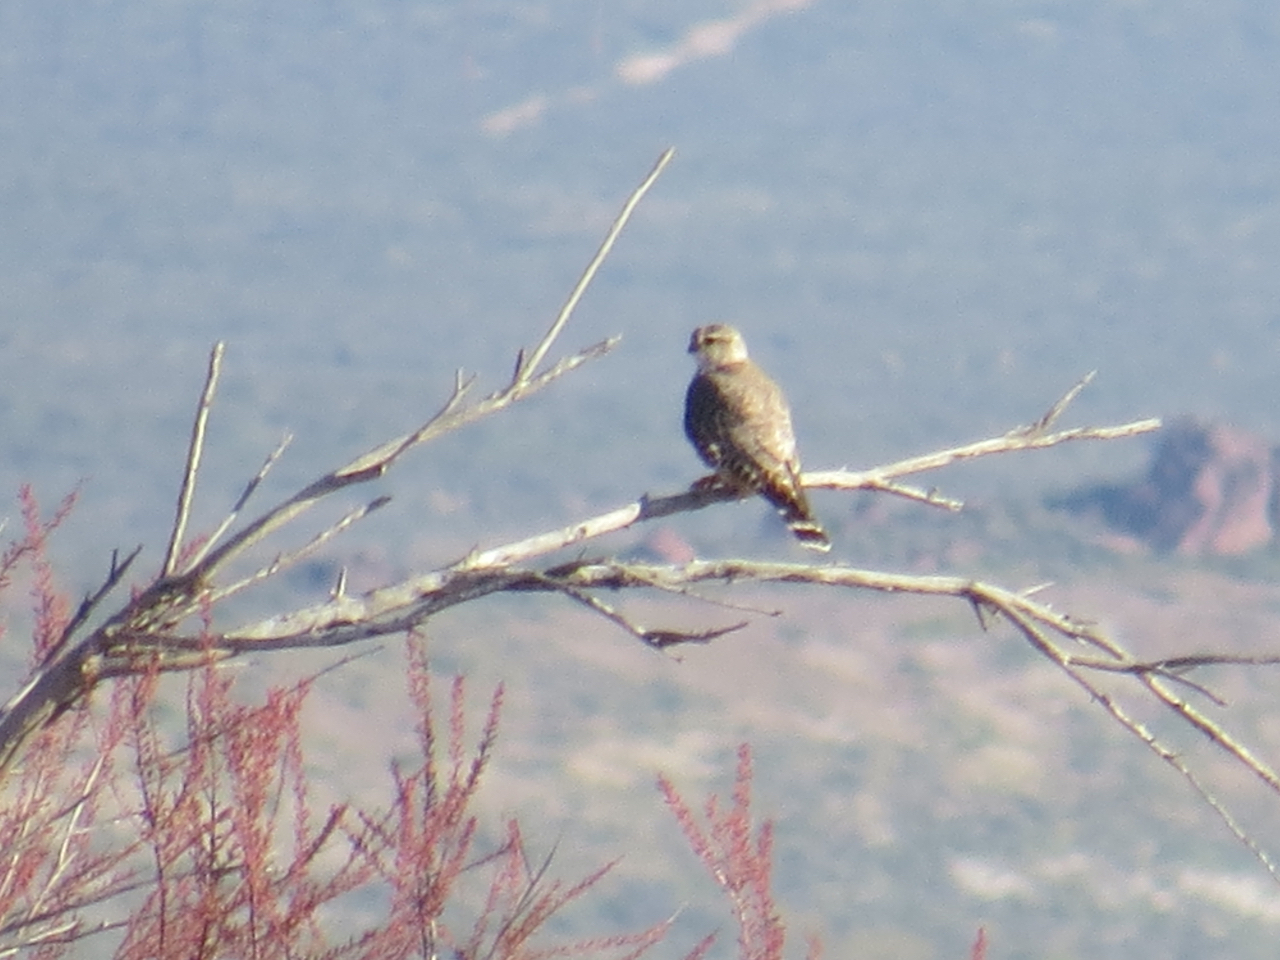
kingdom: Animalia
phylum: Chordata
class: Aves
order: Falconiformes
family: Falconidae
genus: Falco
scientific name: Falco columbarius
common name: Merlin
